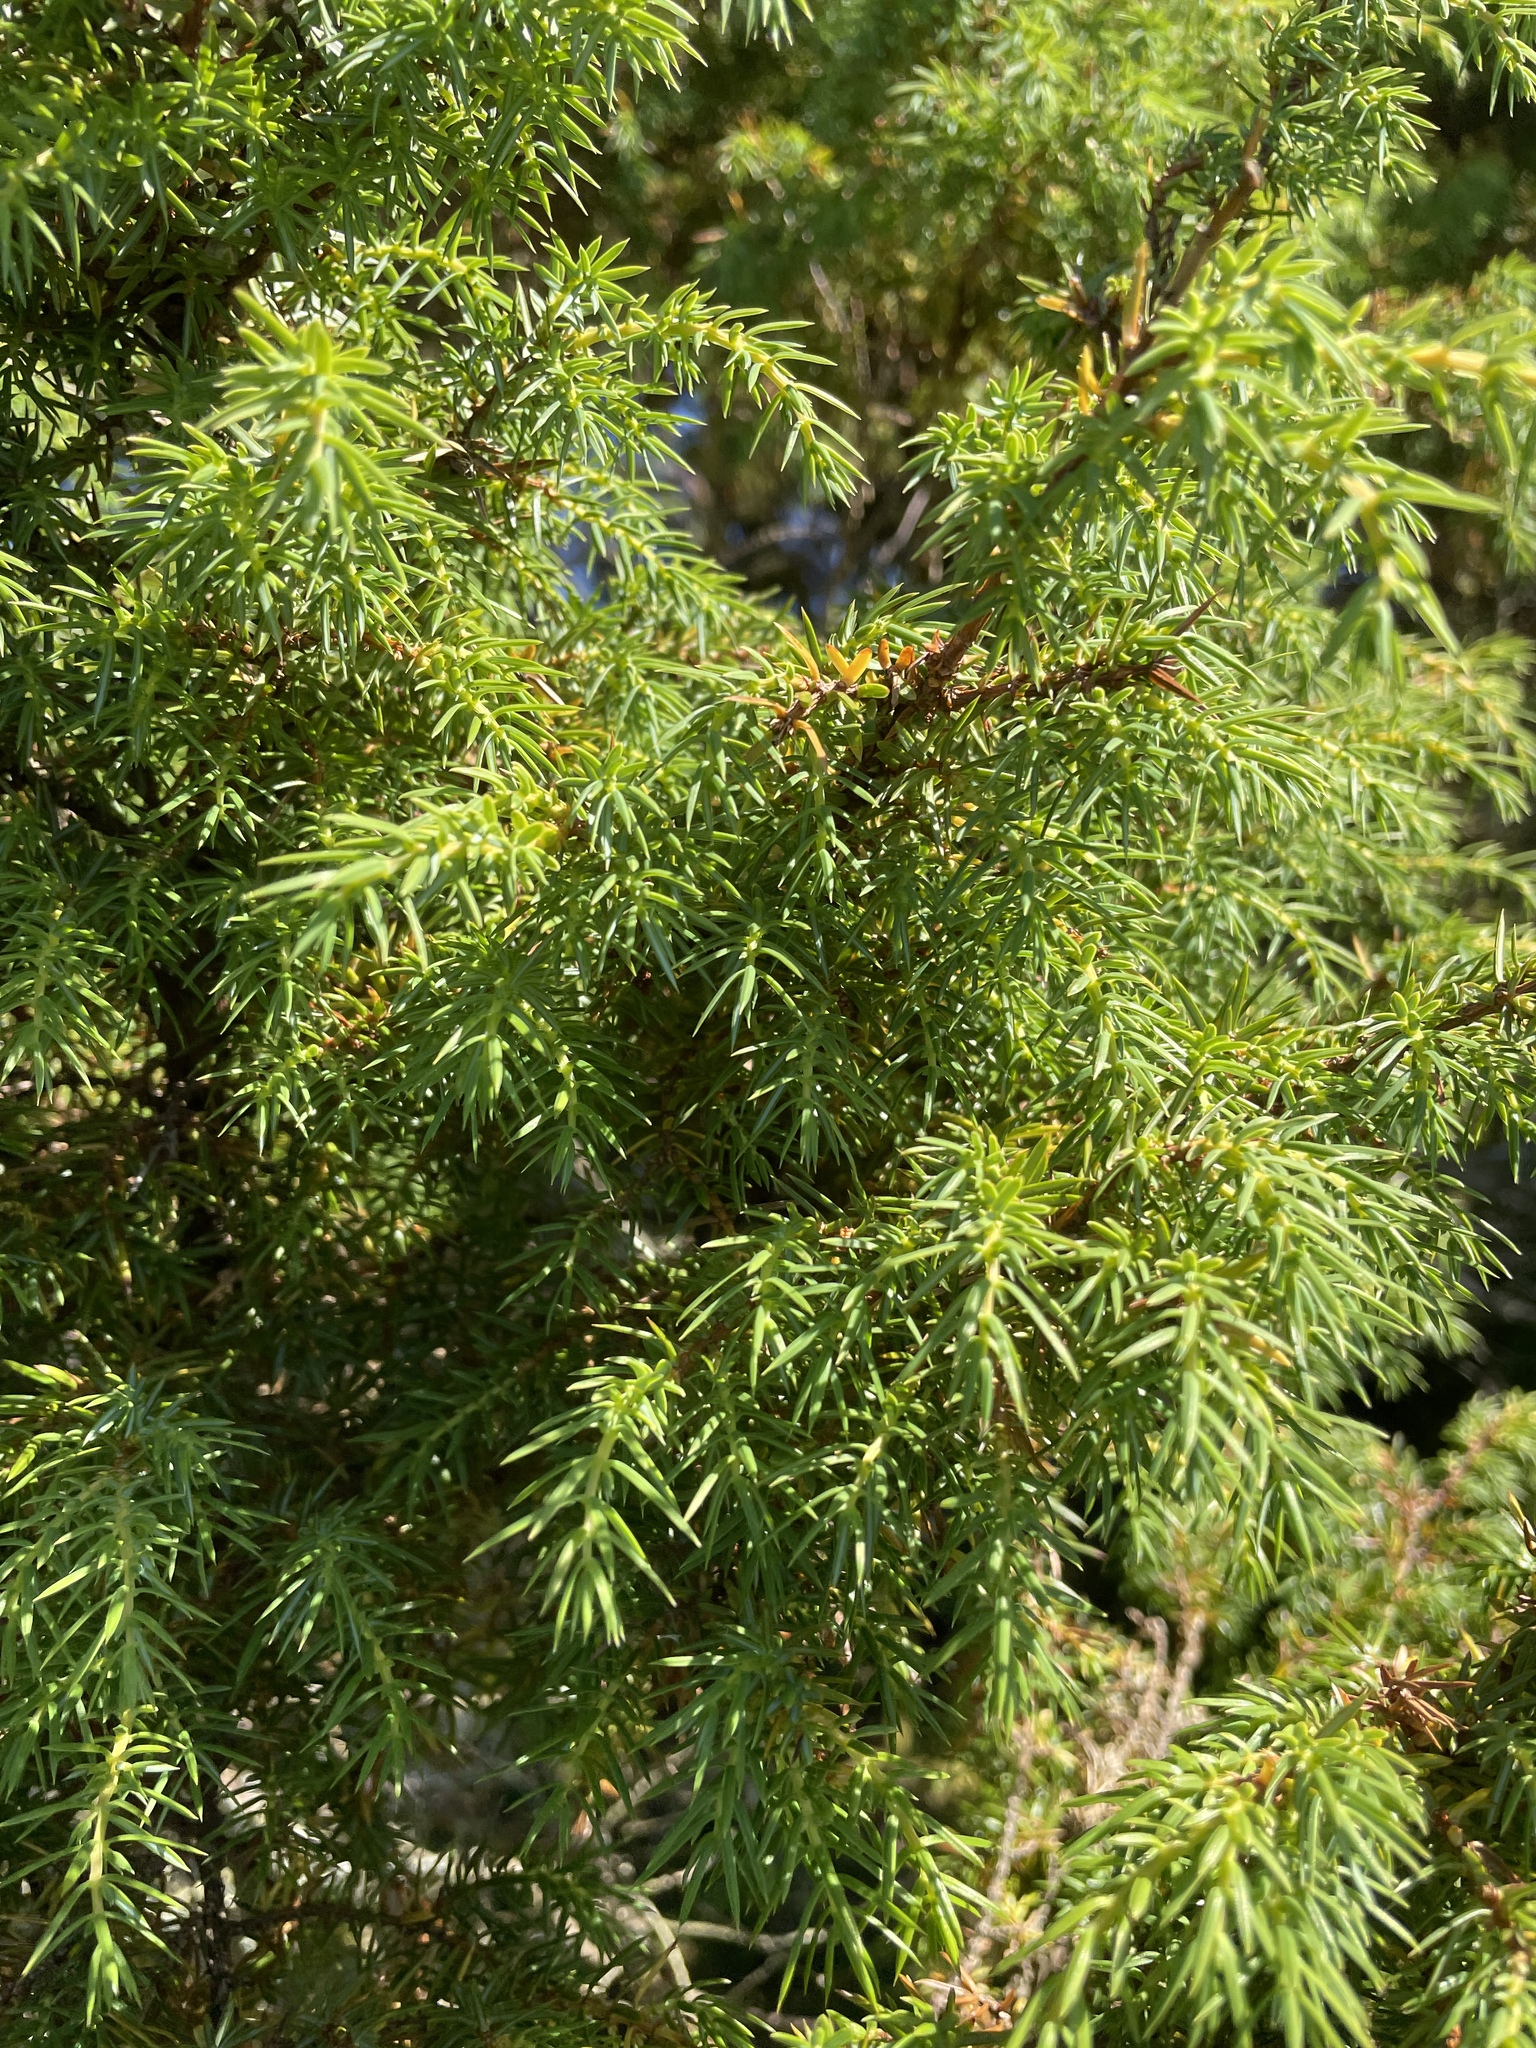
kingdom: Plantae
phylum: Tracheophyta
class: Pinopsida
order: Pinales
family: Cupressaceae
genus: Juniperus
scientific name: Juniperus communis
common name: Common juniper
